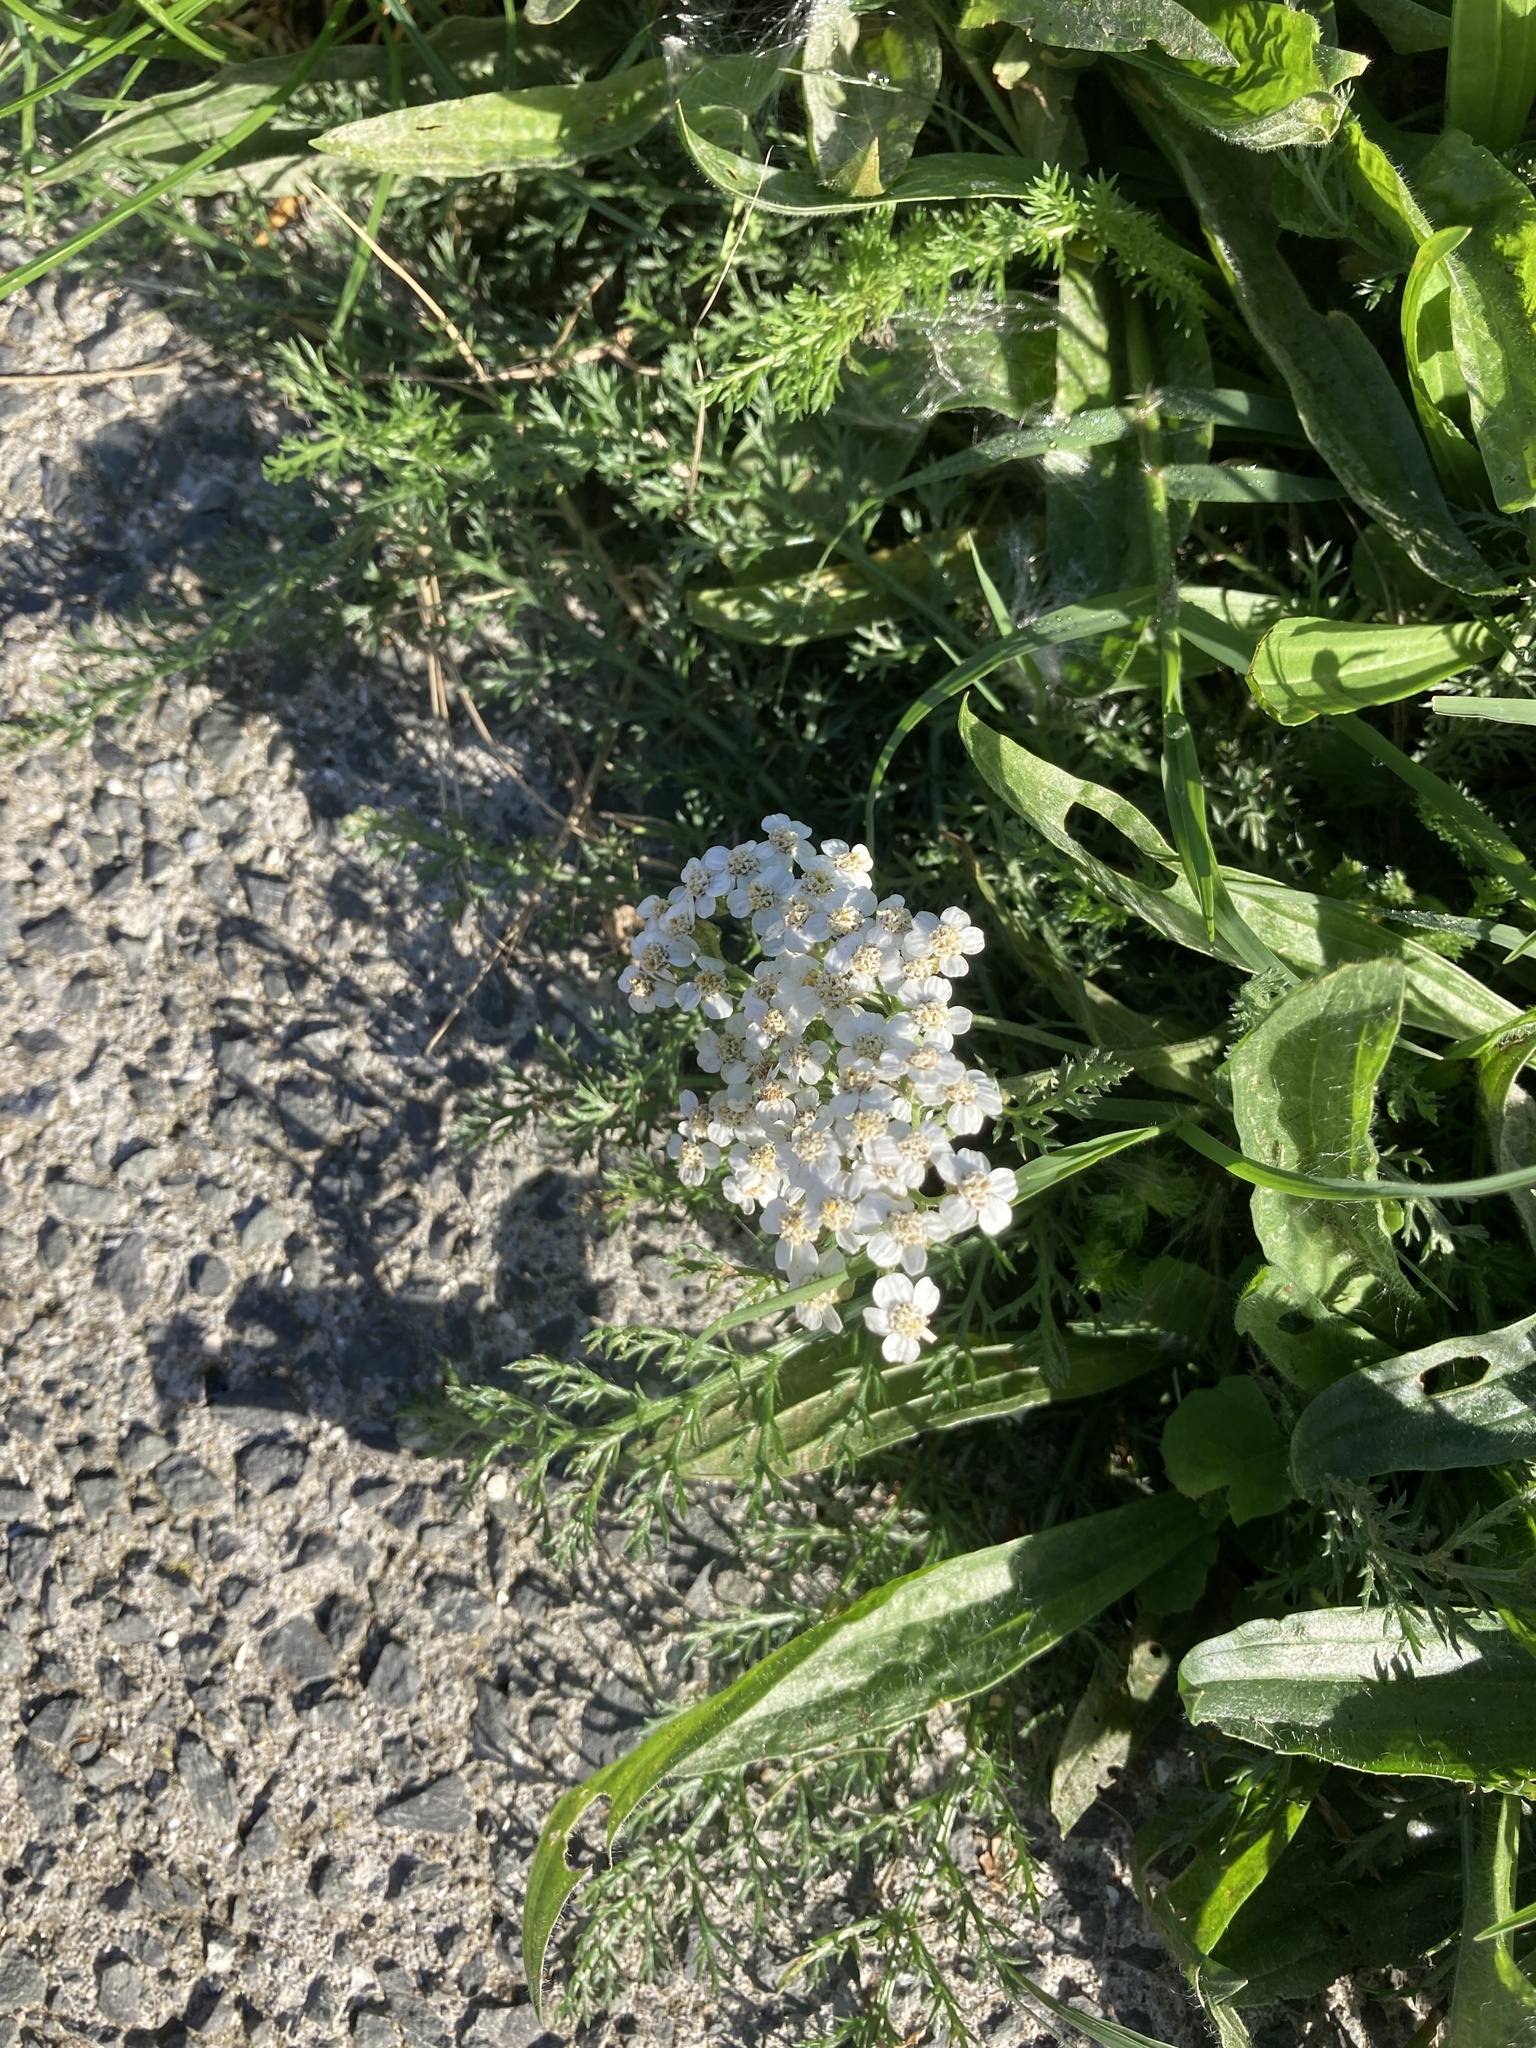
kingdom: Plantae
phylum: Tracheophyta
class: Magnoliopsida
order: Asterales
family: Asteraceae
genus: Achillea
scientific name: Achillea millefolium
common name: Yarrow
